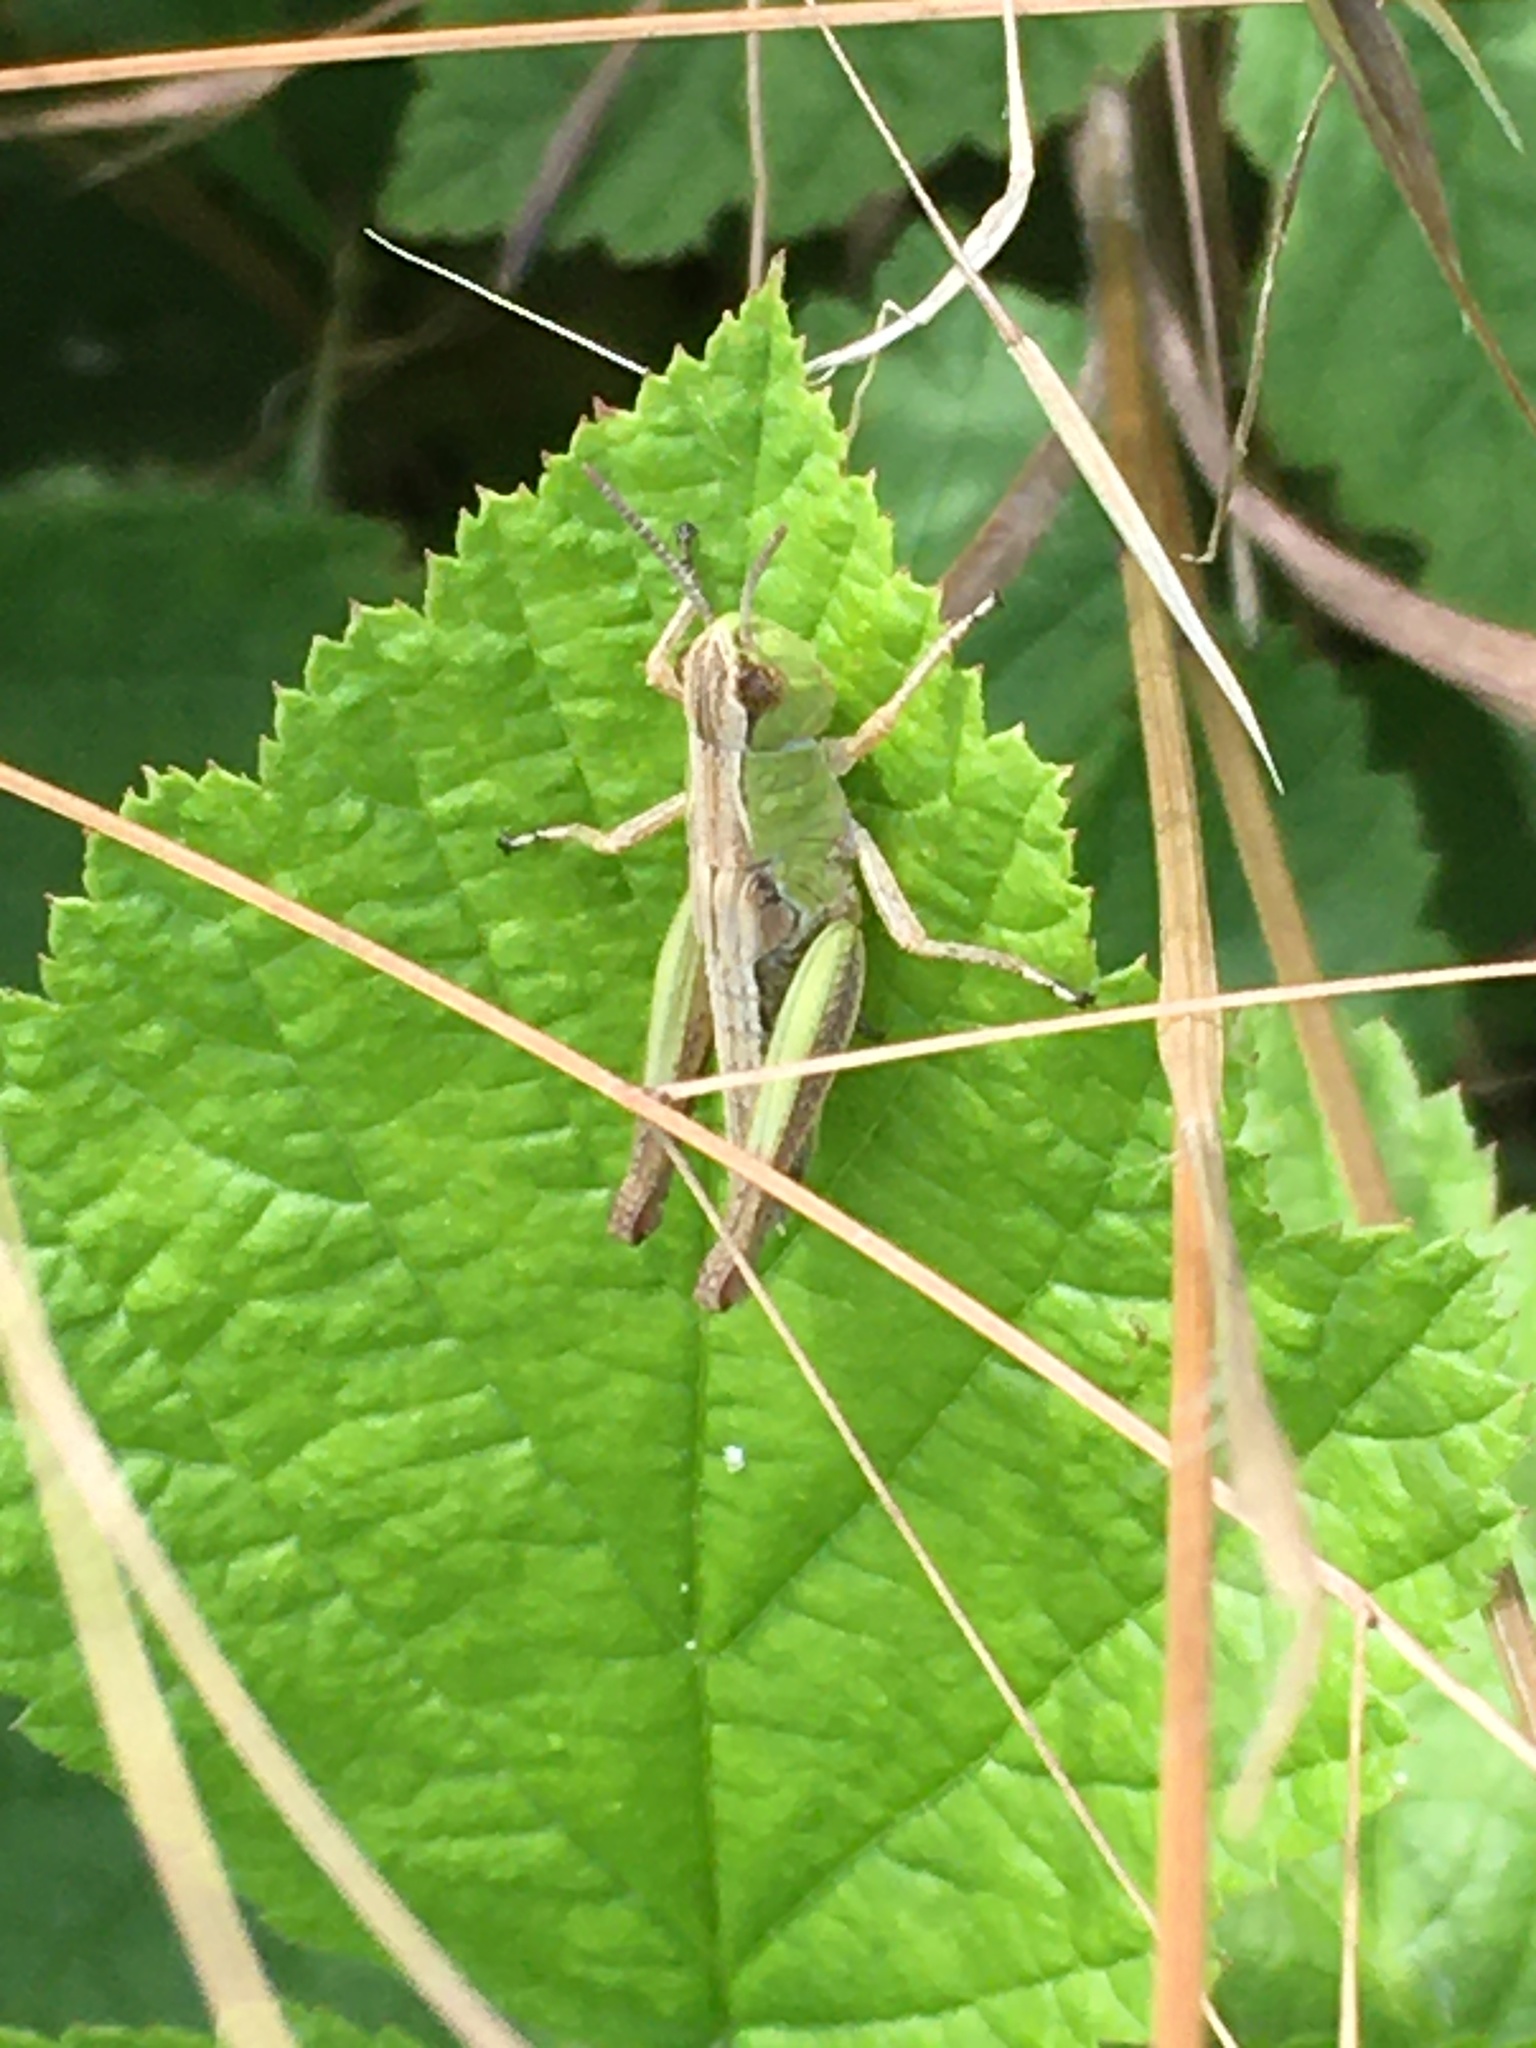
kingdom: Animalia
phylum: Arthropoda
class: Insecta
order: Orthoptera
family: Acrididae
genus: Pseudochorthippus
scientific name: Pseudochorthippus parallelus
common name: Meadow grasshopper
